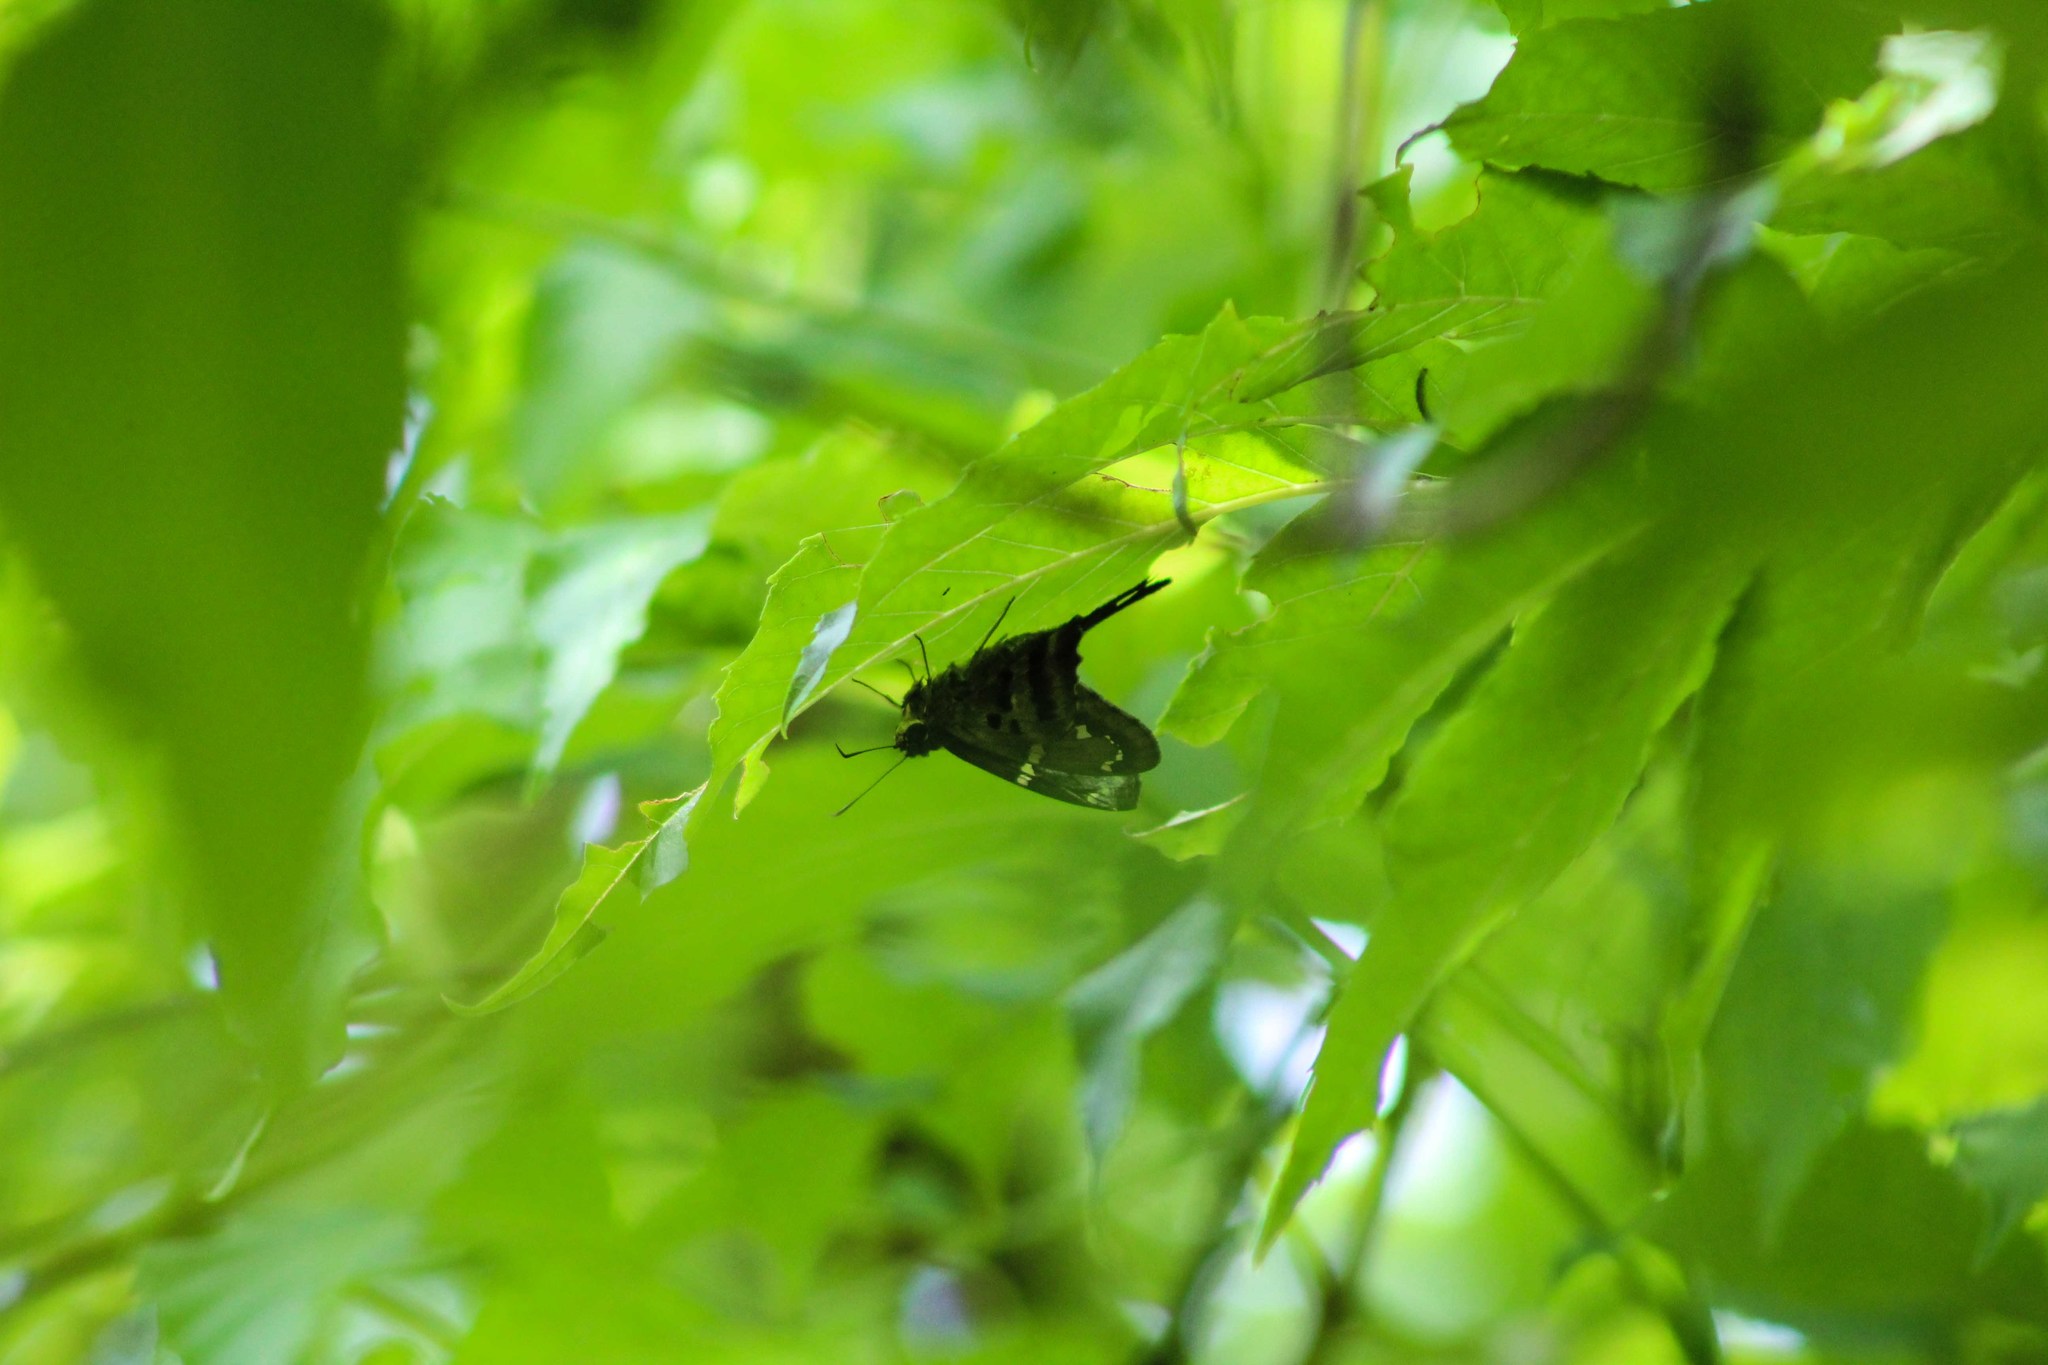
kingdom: Animalia
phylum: Arthropoda
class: Insecta
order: Lepidoptera
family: Hesperiidae
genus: Thorybes
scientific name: Thorybes
